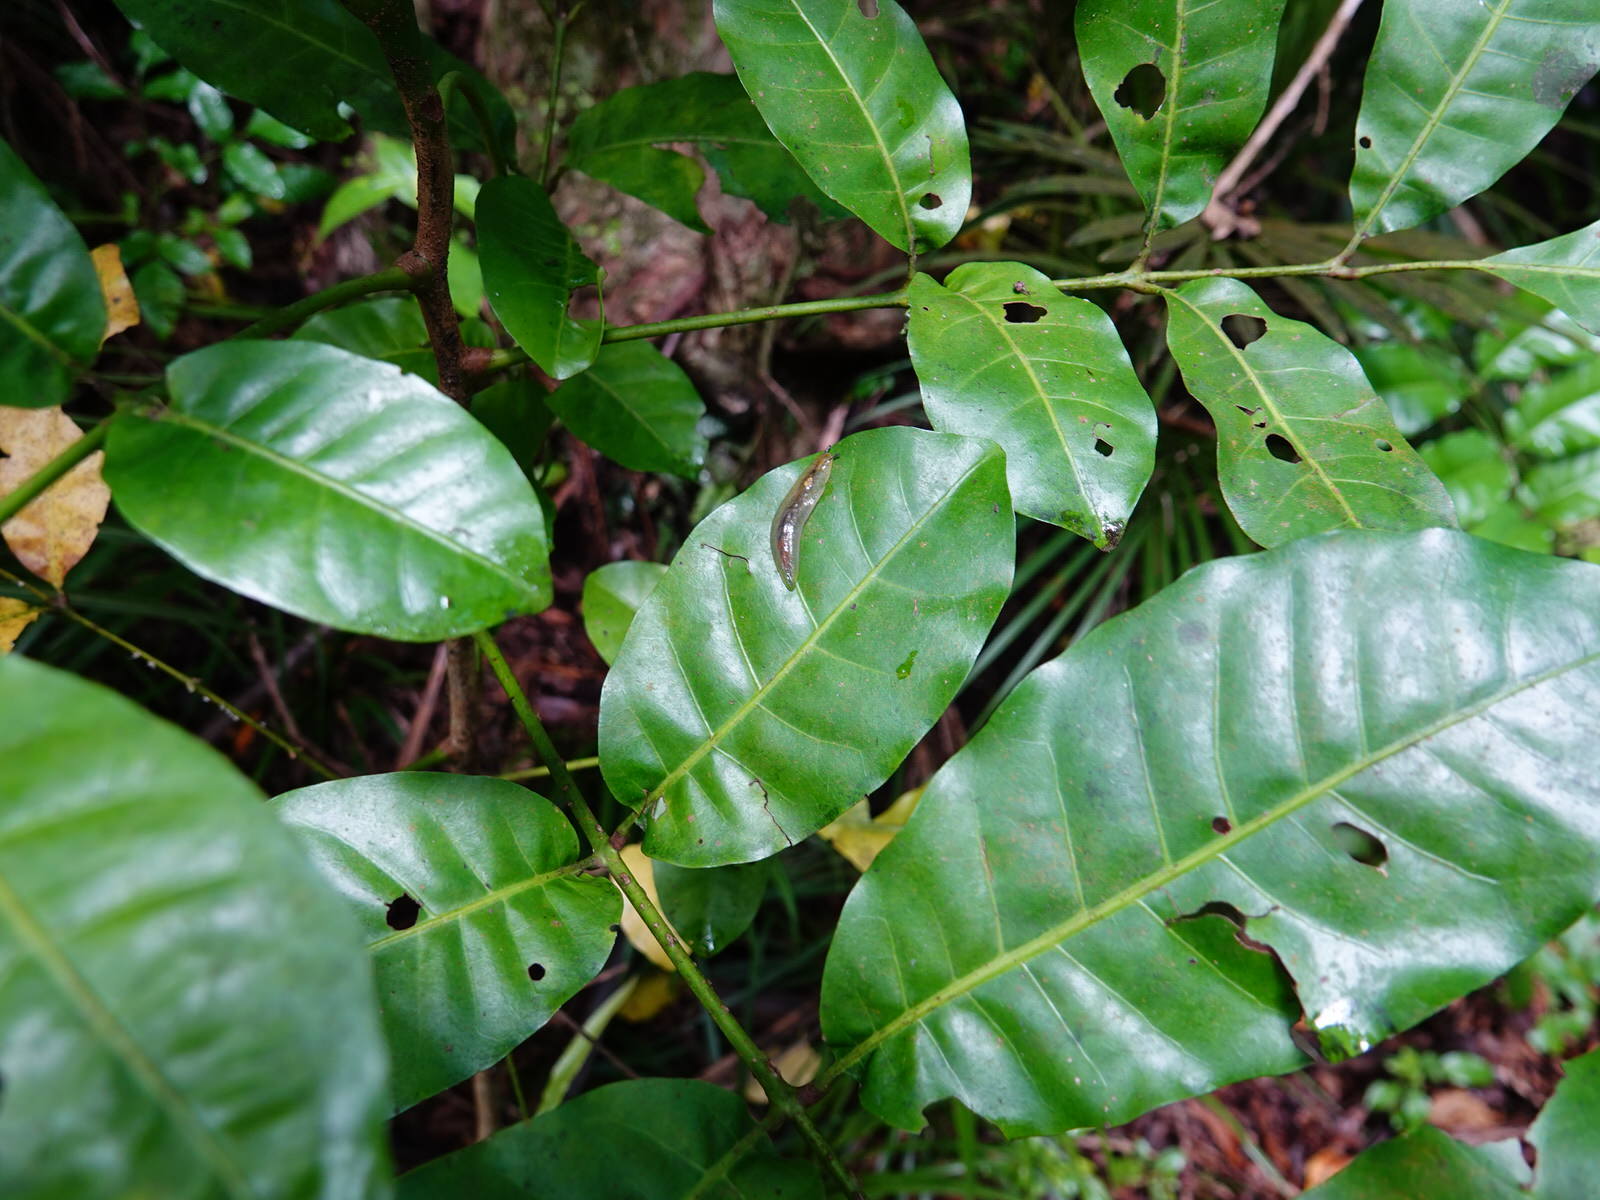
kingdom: Animalia
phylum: Mollusca
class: Gastropoda
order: Stylommatophora
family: Athoracophoridae
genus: Athoracophorus
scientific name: Athoracophorus bitentaculatus
